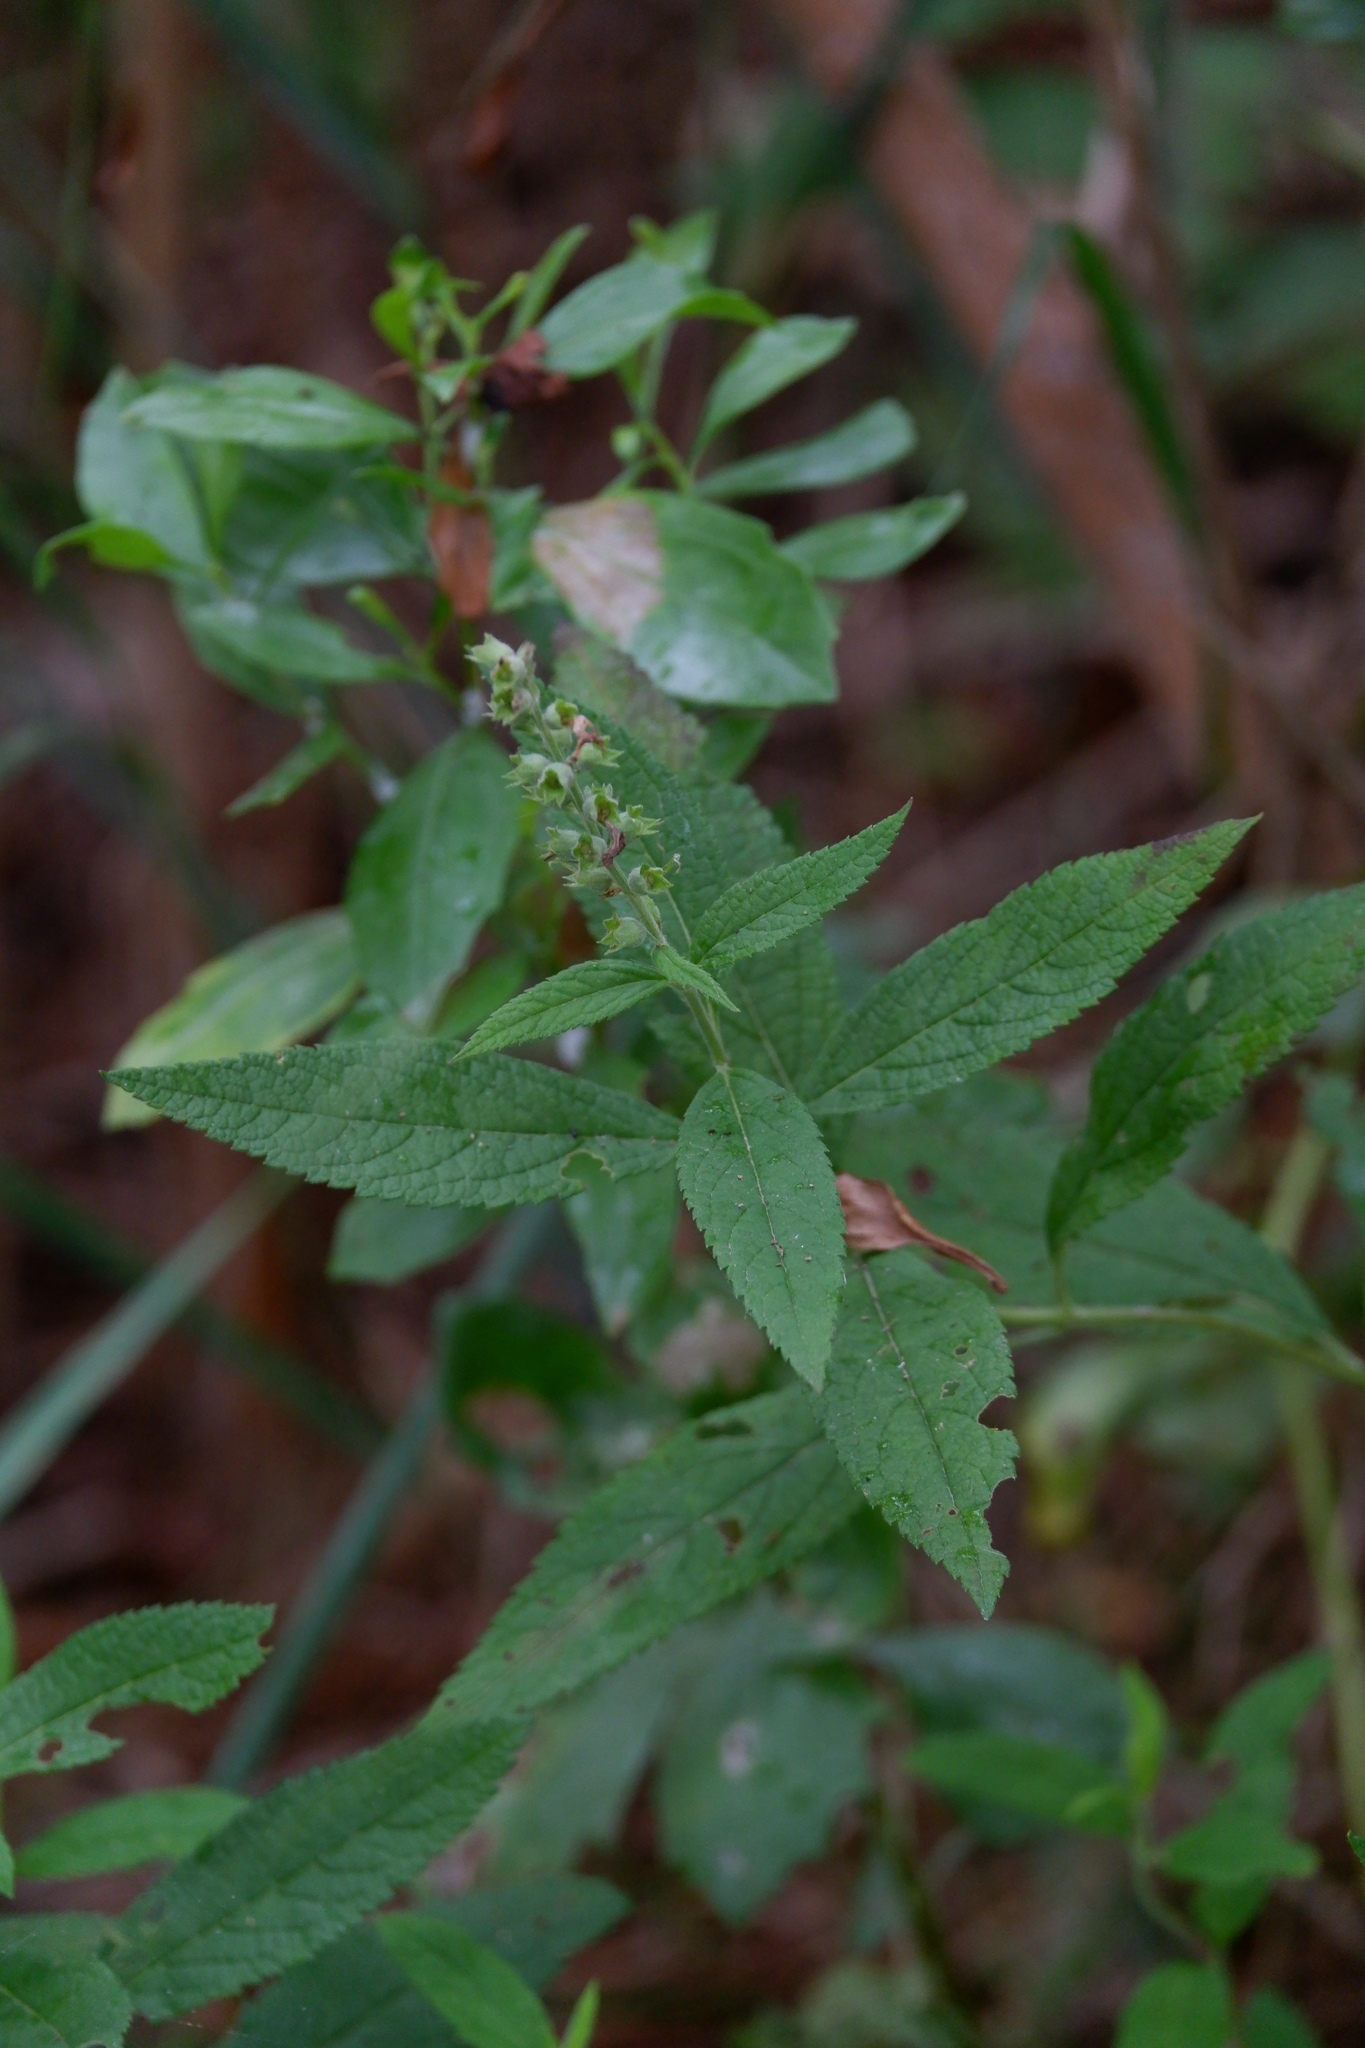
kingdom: Plantae
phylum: Tracheophyta
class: Magnoliopsida
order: Lamiales
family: Lamiaceae
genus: Teucrium
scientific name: Teucrium canadense
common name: American germander
